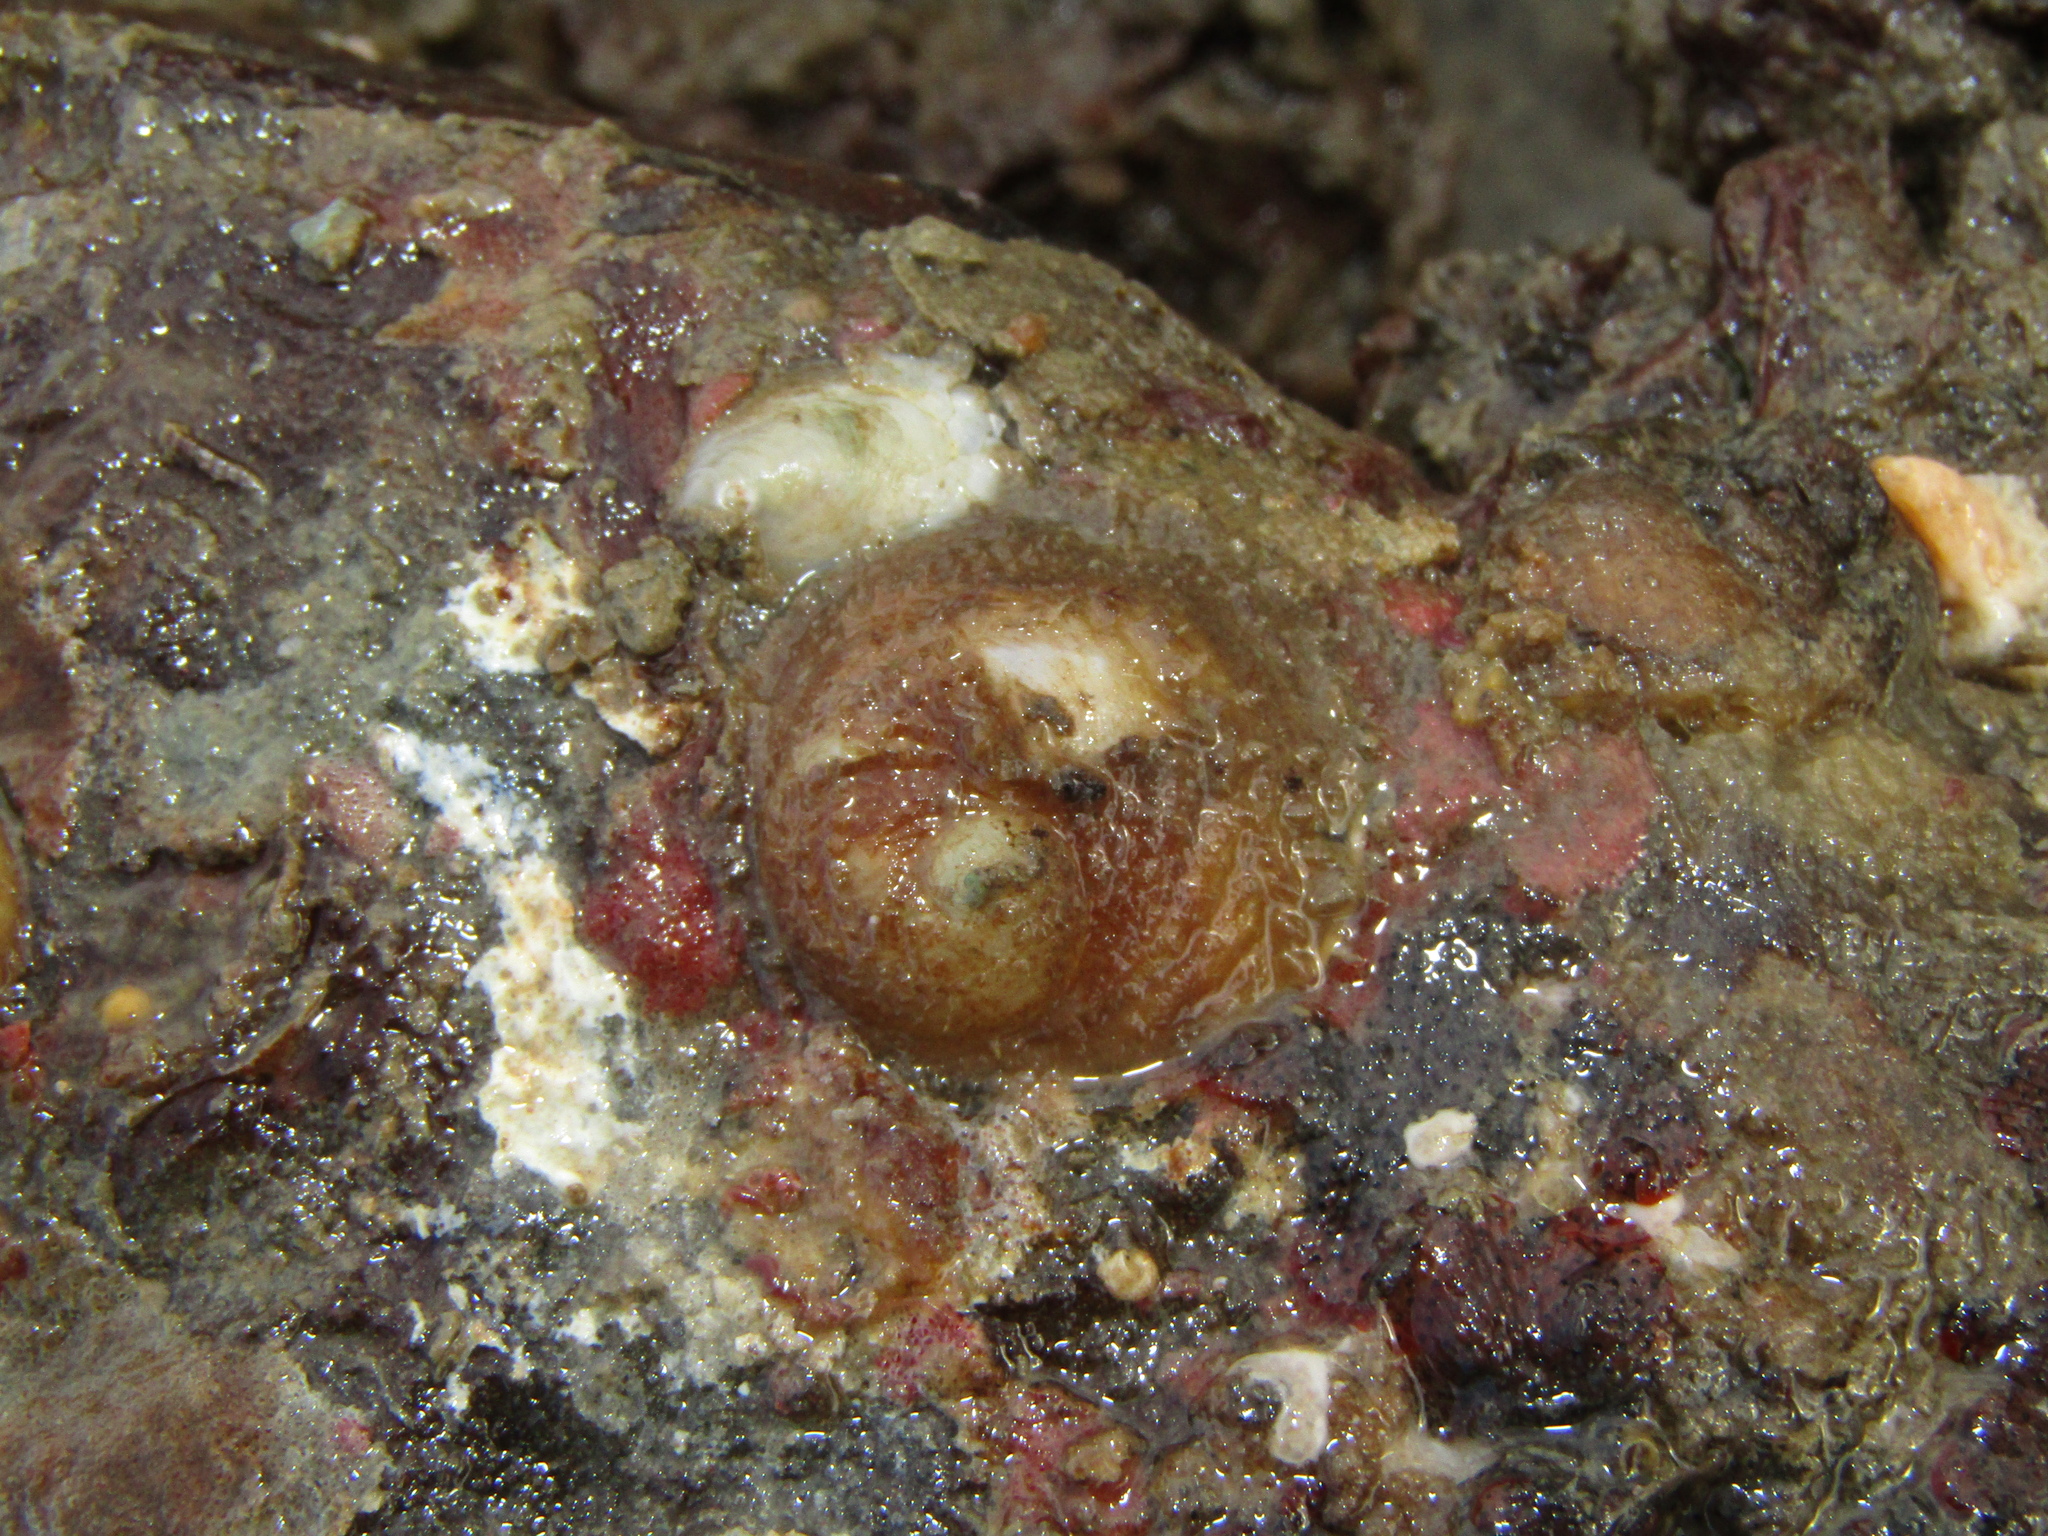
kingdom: Animalia
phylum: Mollusca
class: Gastropoda
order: Littorinimorpha
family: Calyptraeidae
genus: Sigapatella
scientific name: Sigapatella novaezelandiae
